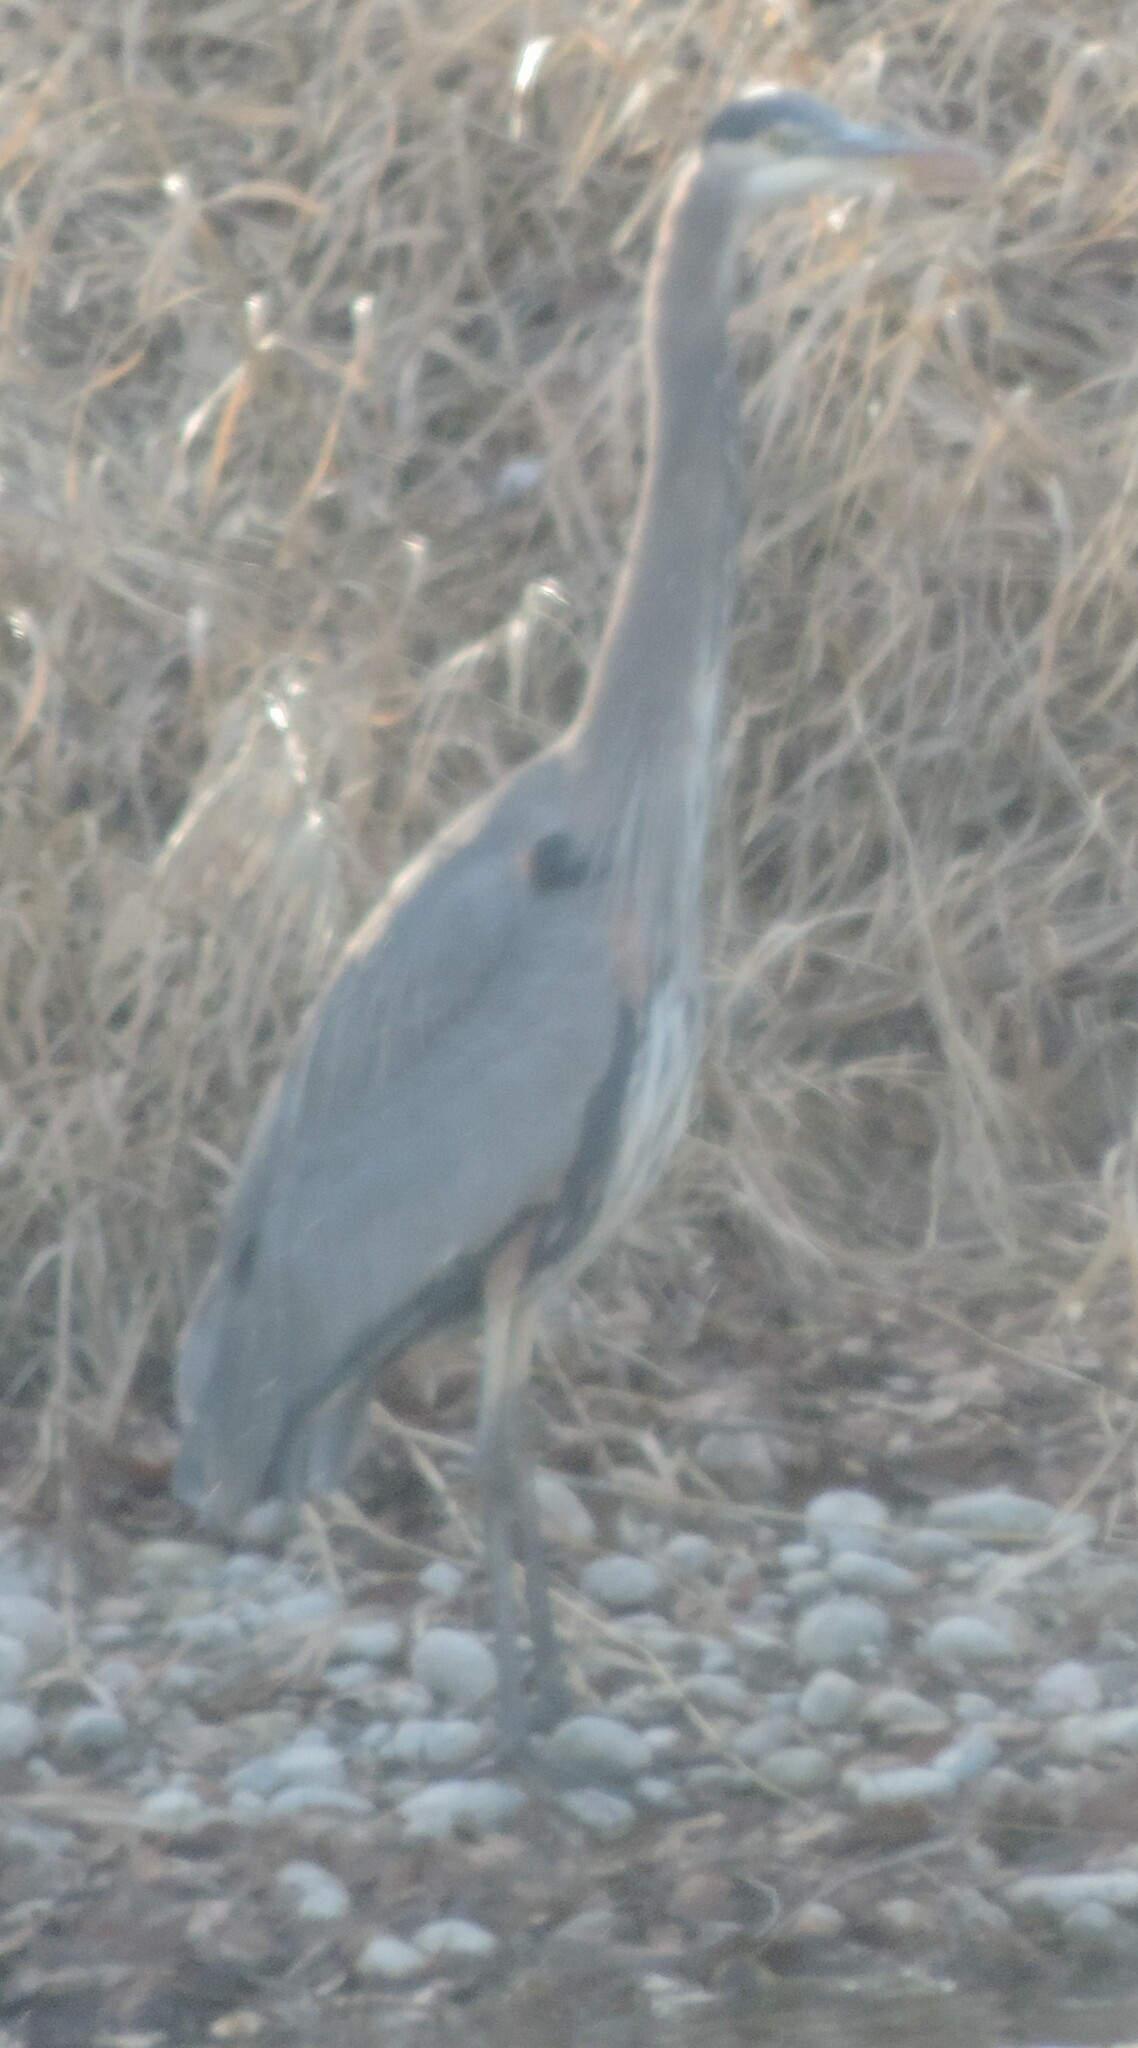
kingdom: Animalia
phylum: Chordata
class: Aves
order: Pelecaniformes
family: Ardeidae
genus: Ardea
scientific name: Ardea herodias
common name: Great blue heron
